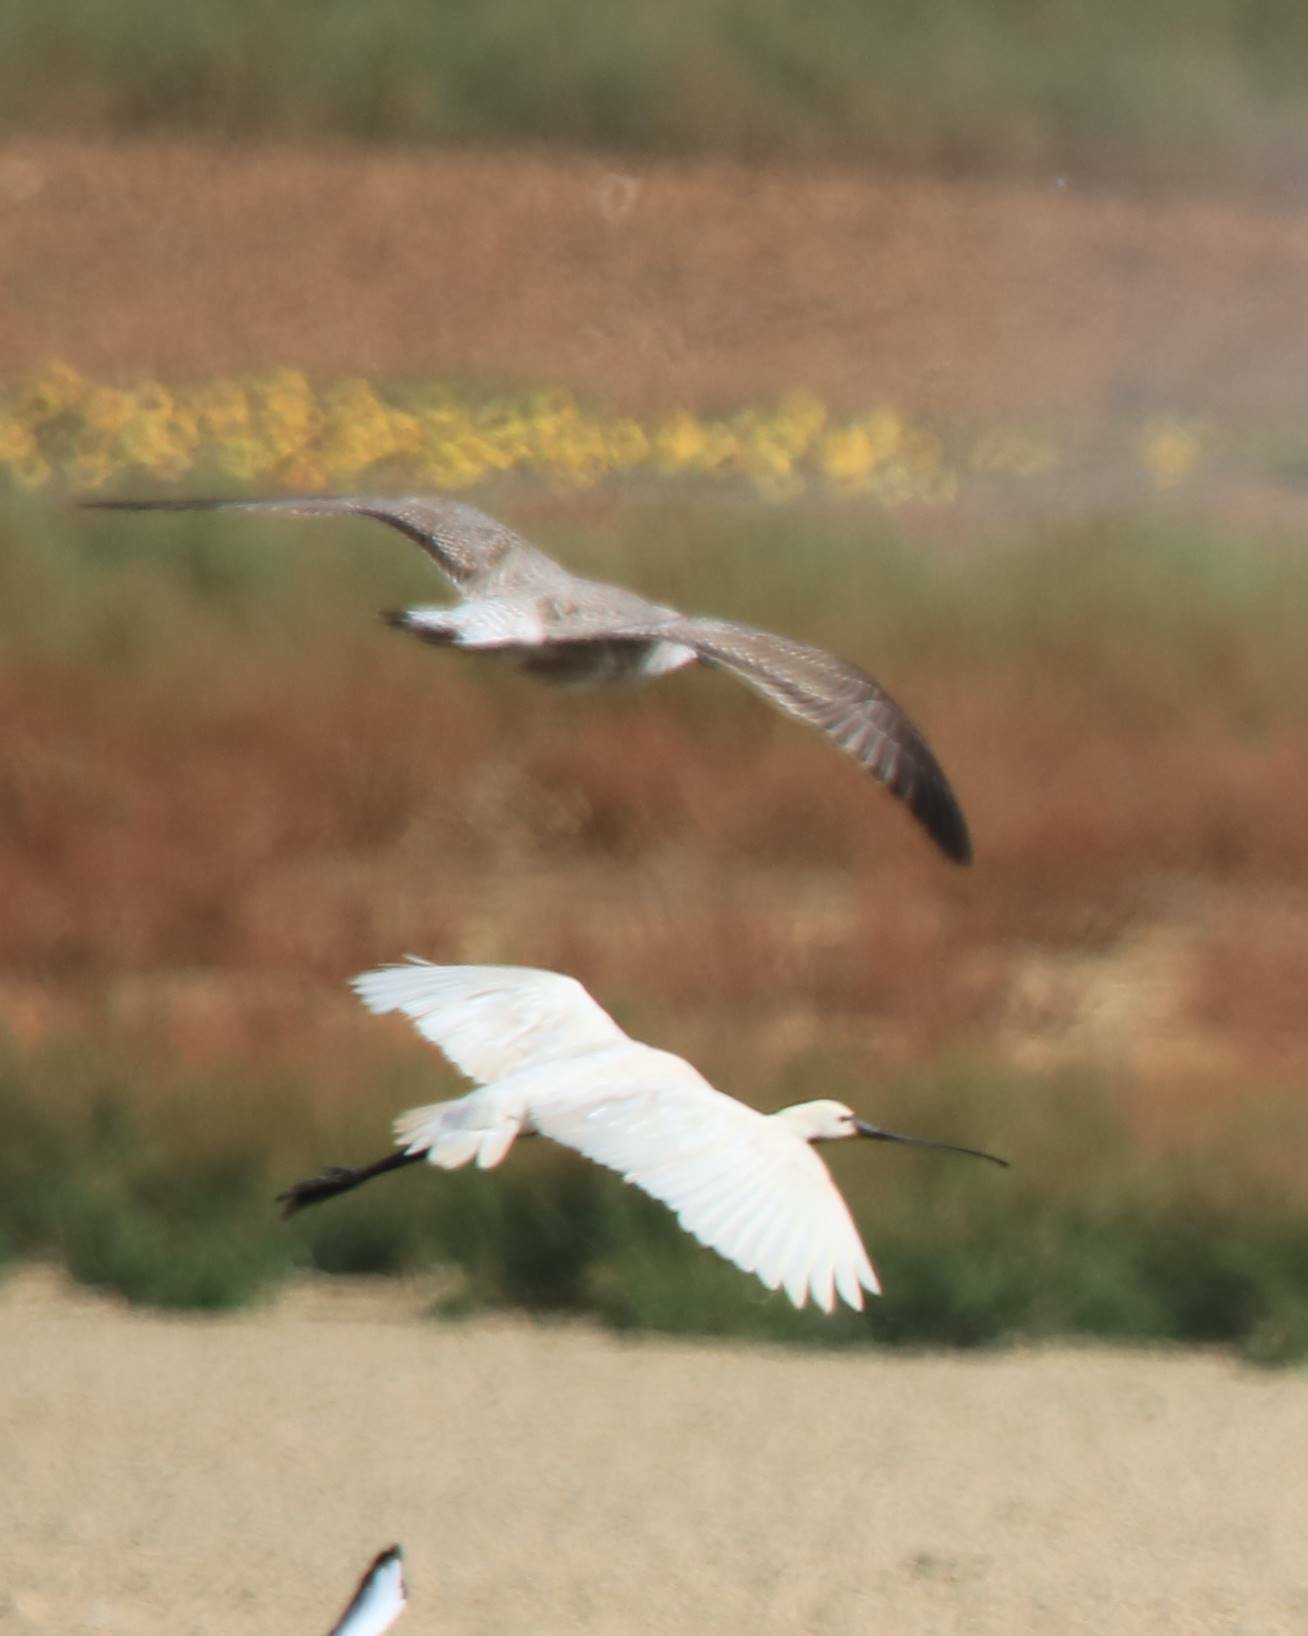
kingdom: Animalia
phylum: Chordata
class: Aves
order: Pelecaniformes
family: Threskiornithidae
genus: Platalea
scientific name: Platalea leucorodia
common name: Eurasian spoonbill
